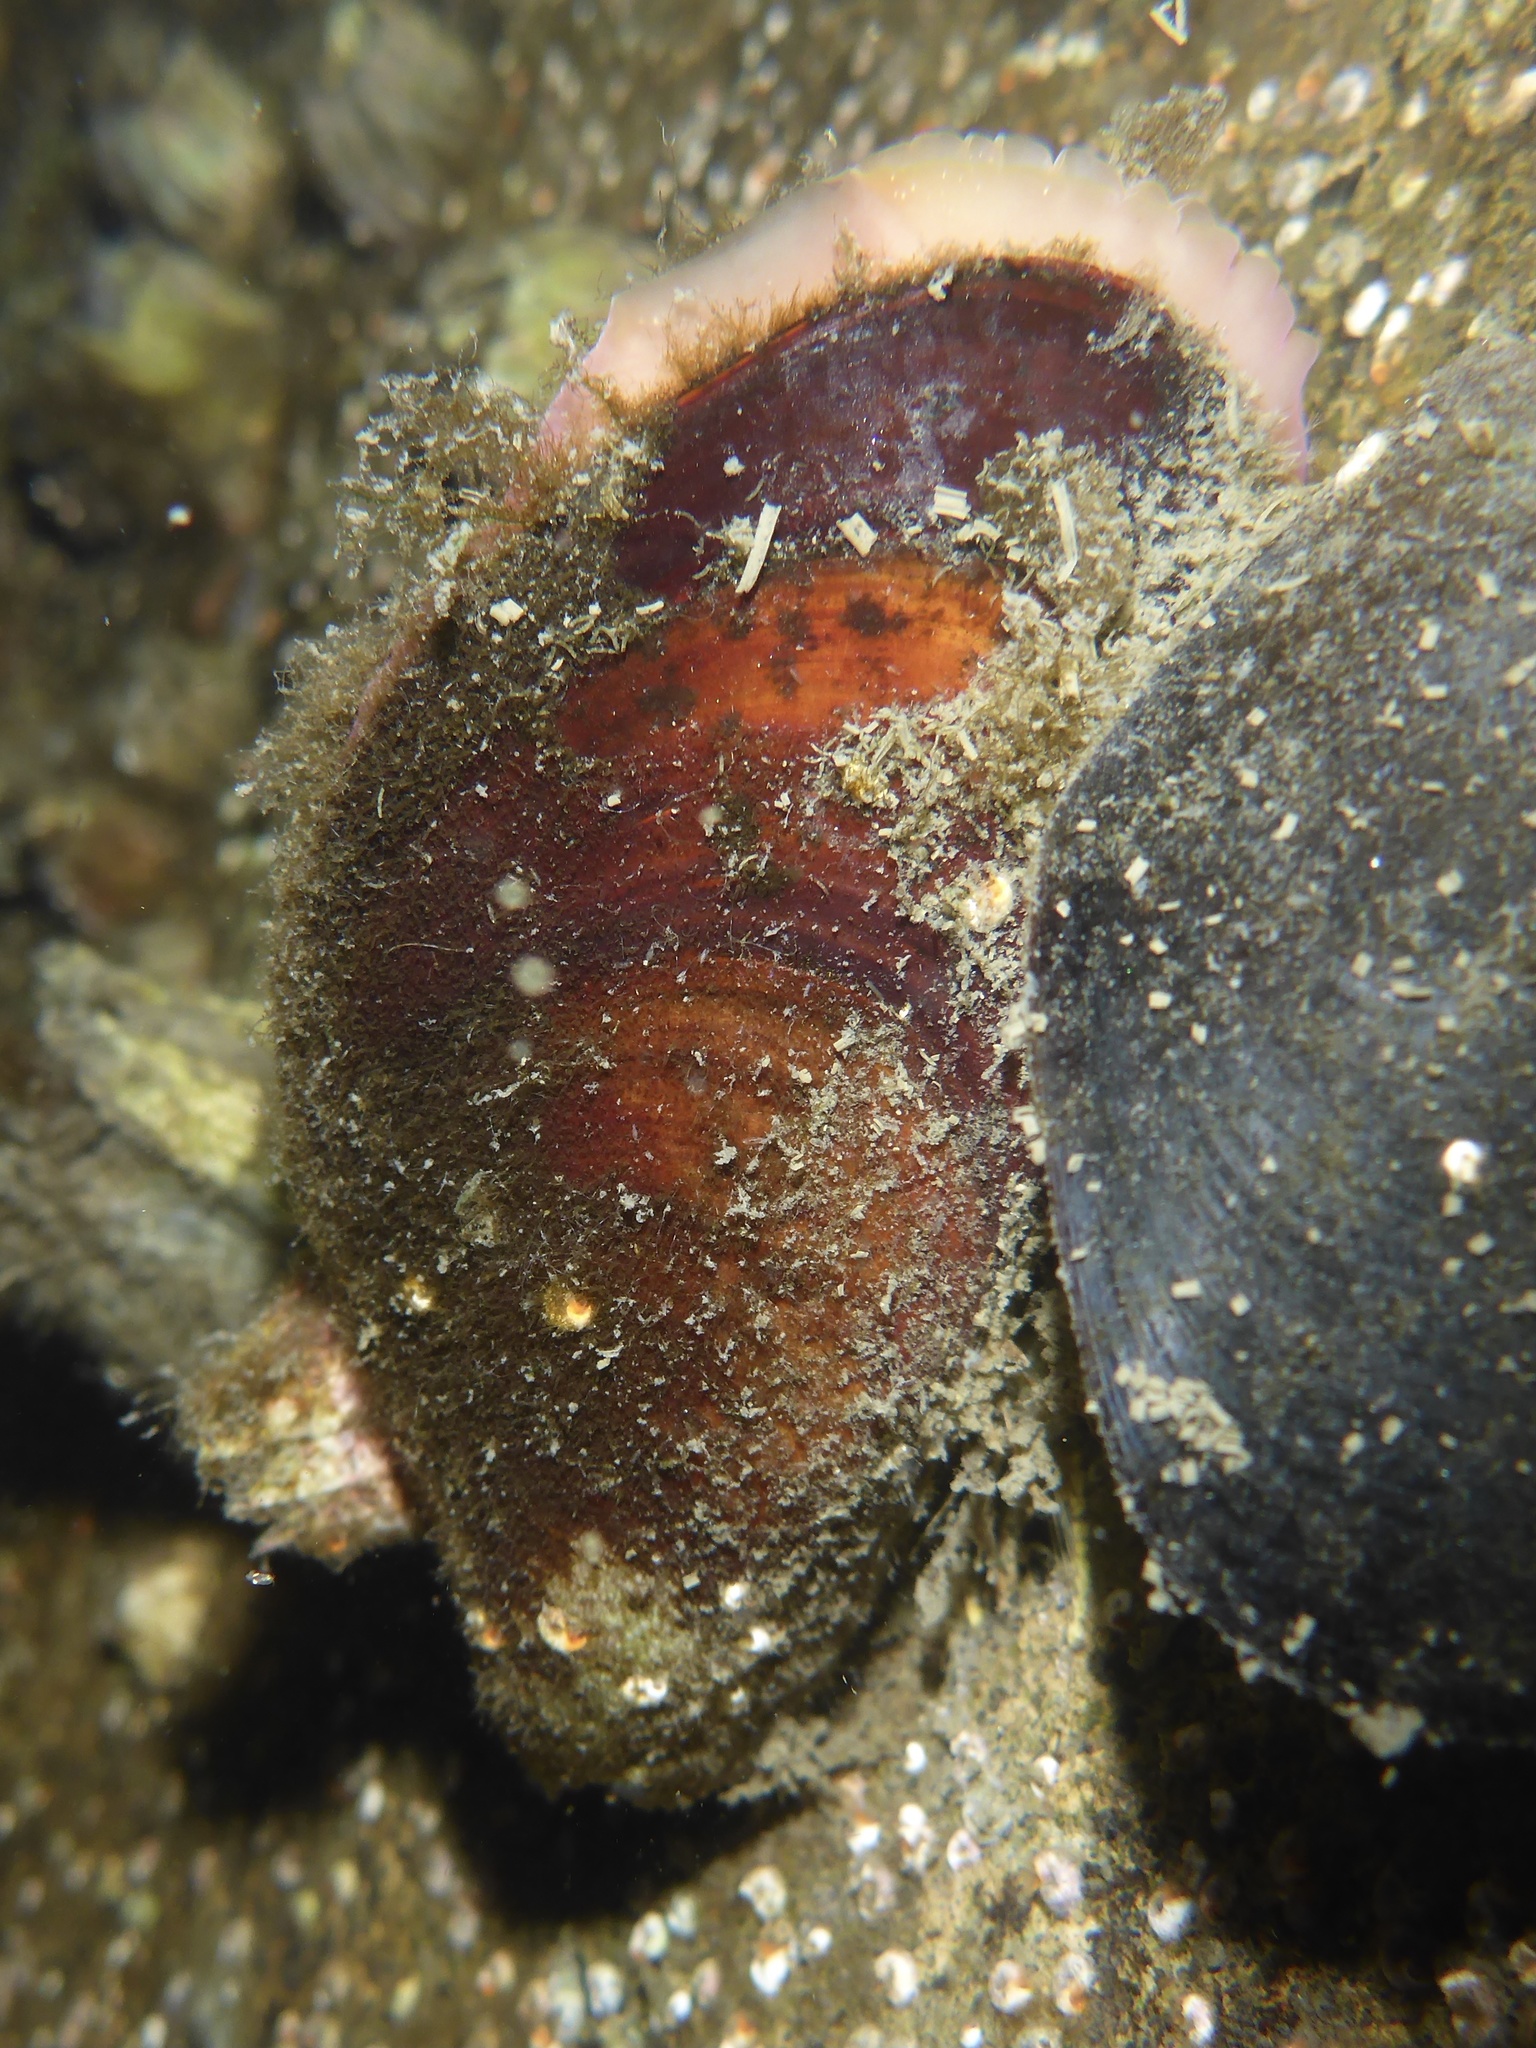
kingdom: Animalia
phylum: Mollusca
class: Bivalvia
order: Mytilida
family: Mytilidae
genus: Modiolus
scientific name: Modiolus modiolus
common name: Horse-mussel
